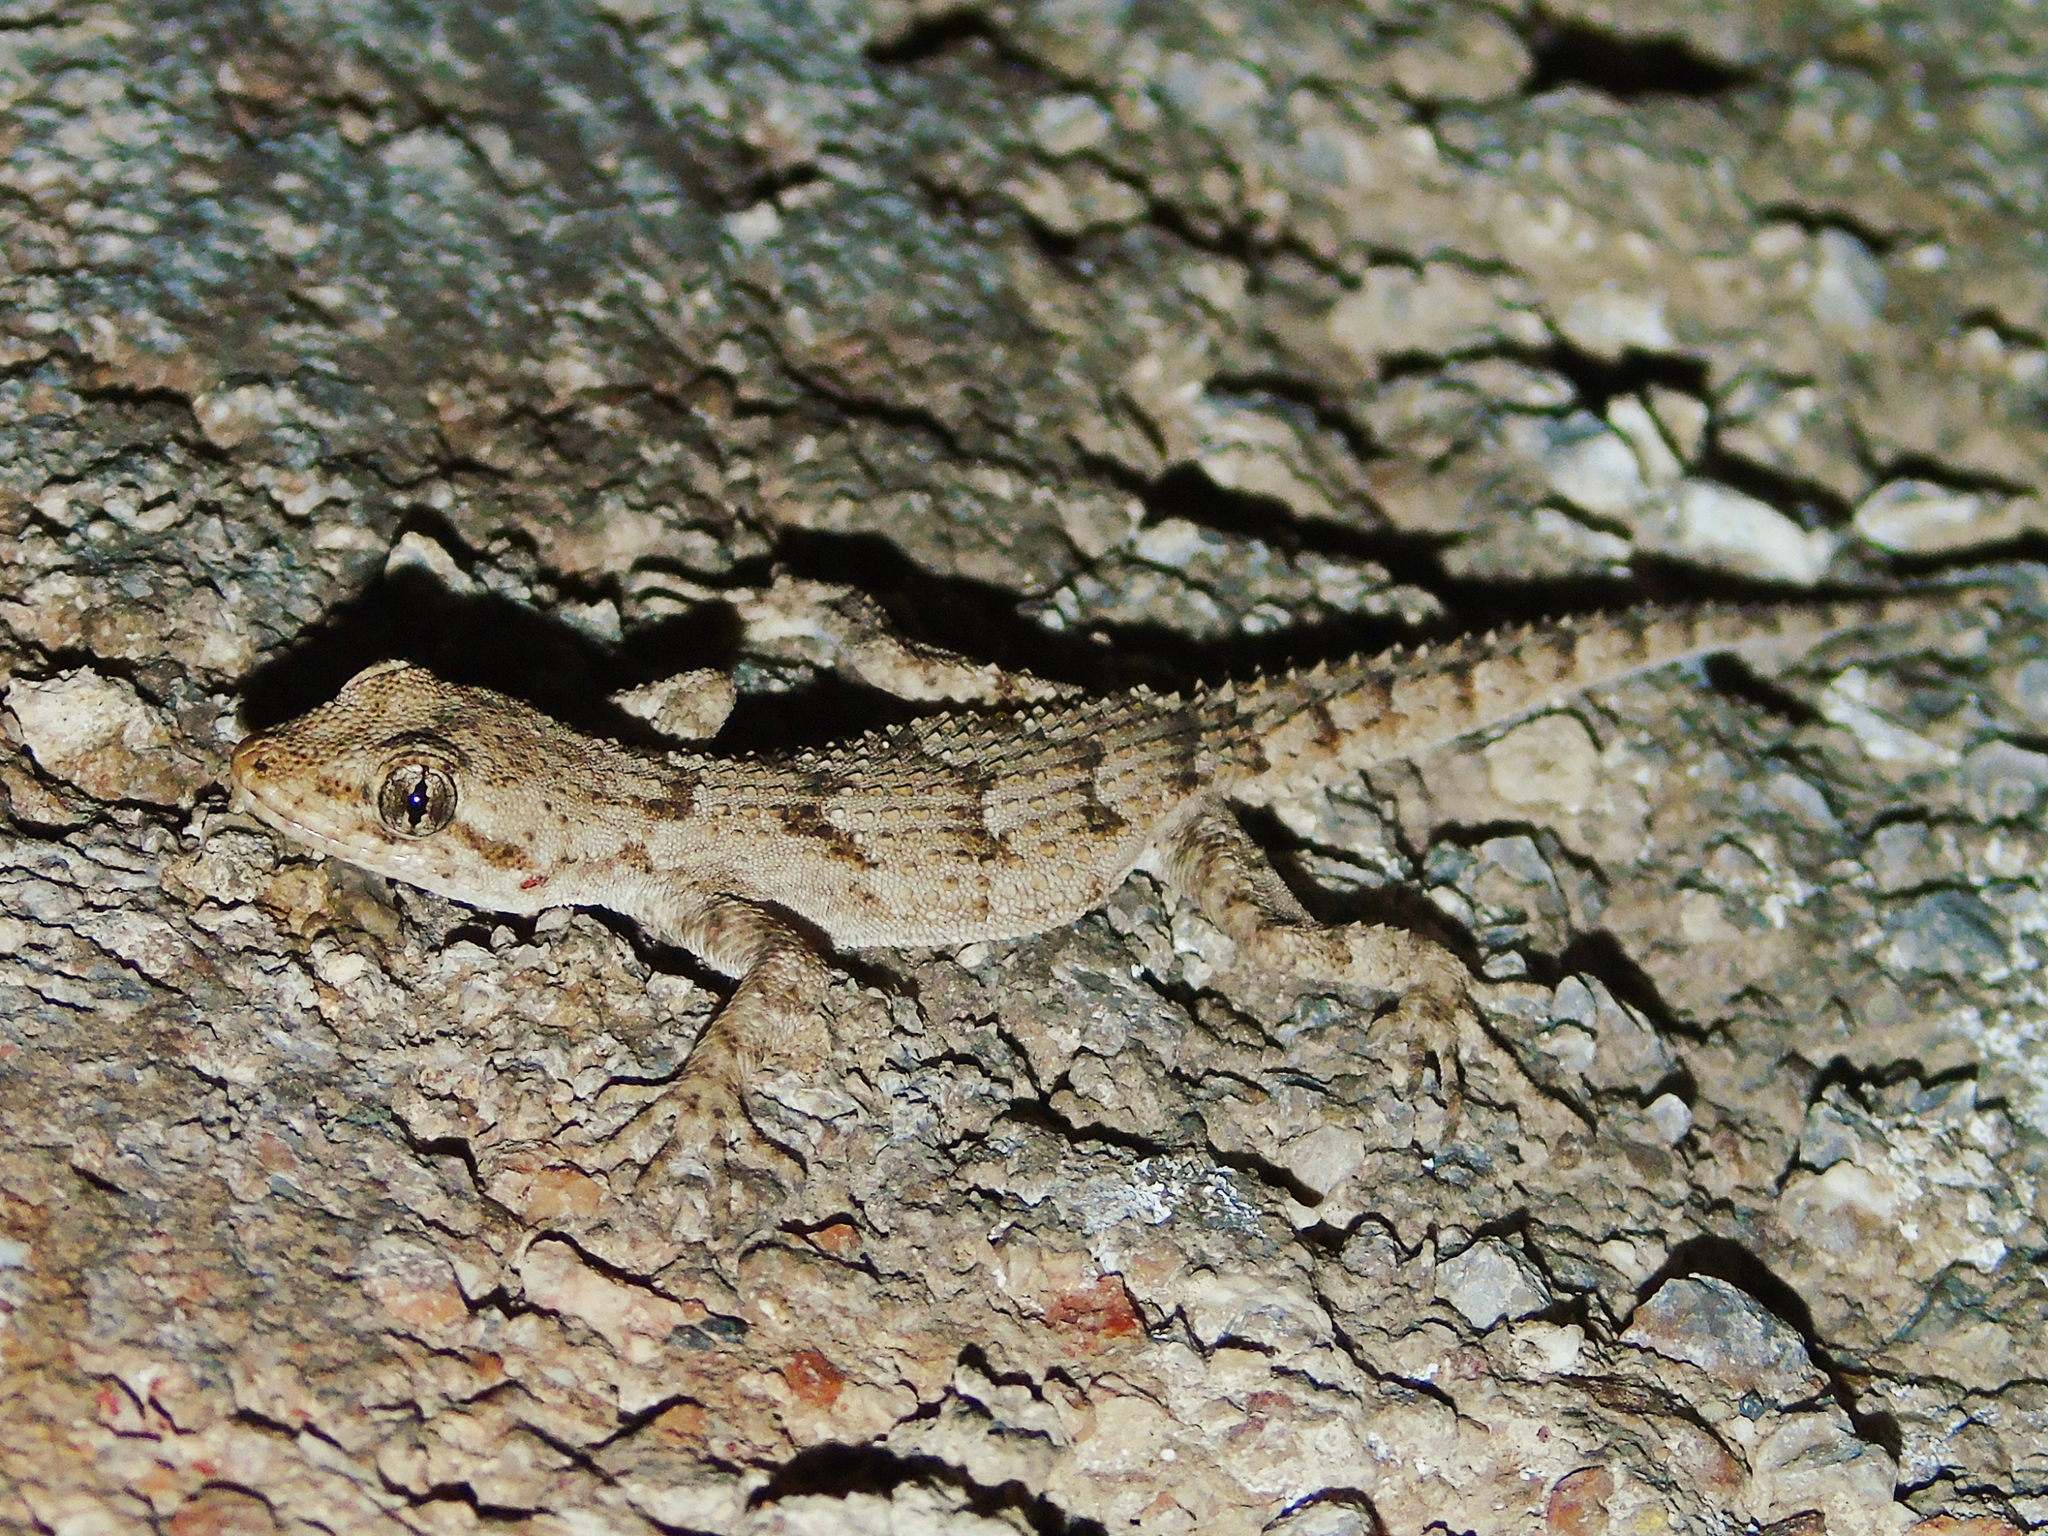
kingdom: Animalia
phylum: Chordata
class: Squamata
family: Gekkonidae
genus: Mediodactylus
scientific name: Mediodactylus kotschyi
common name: Kotschy's gecko
